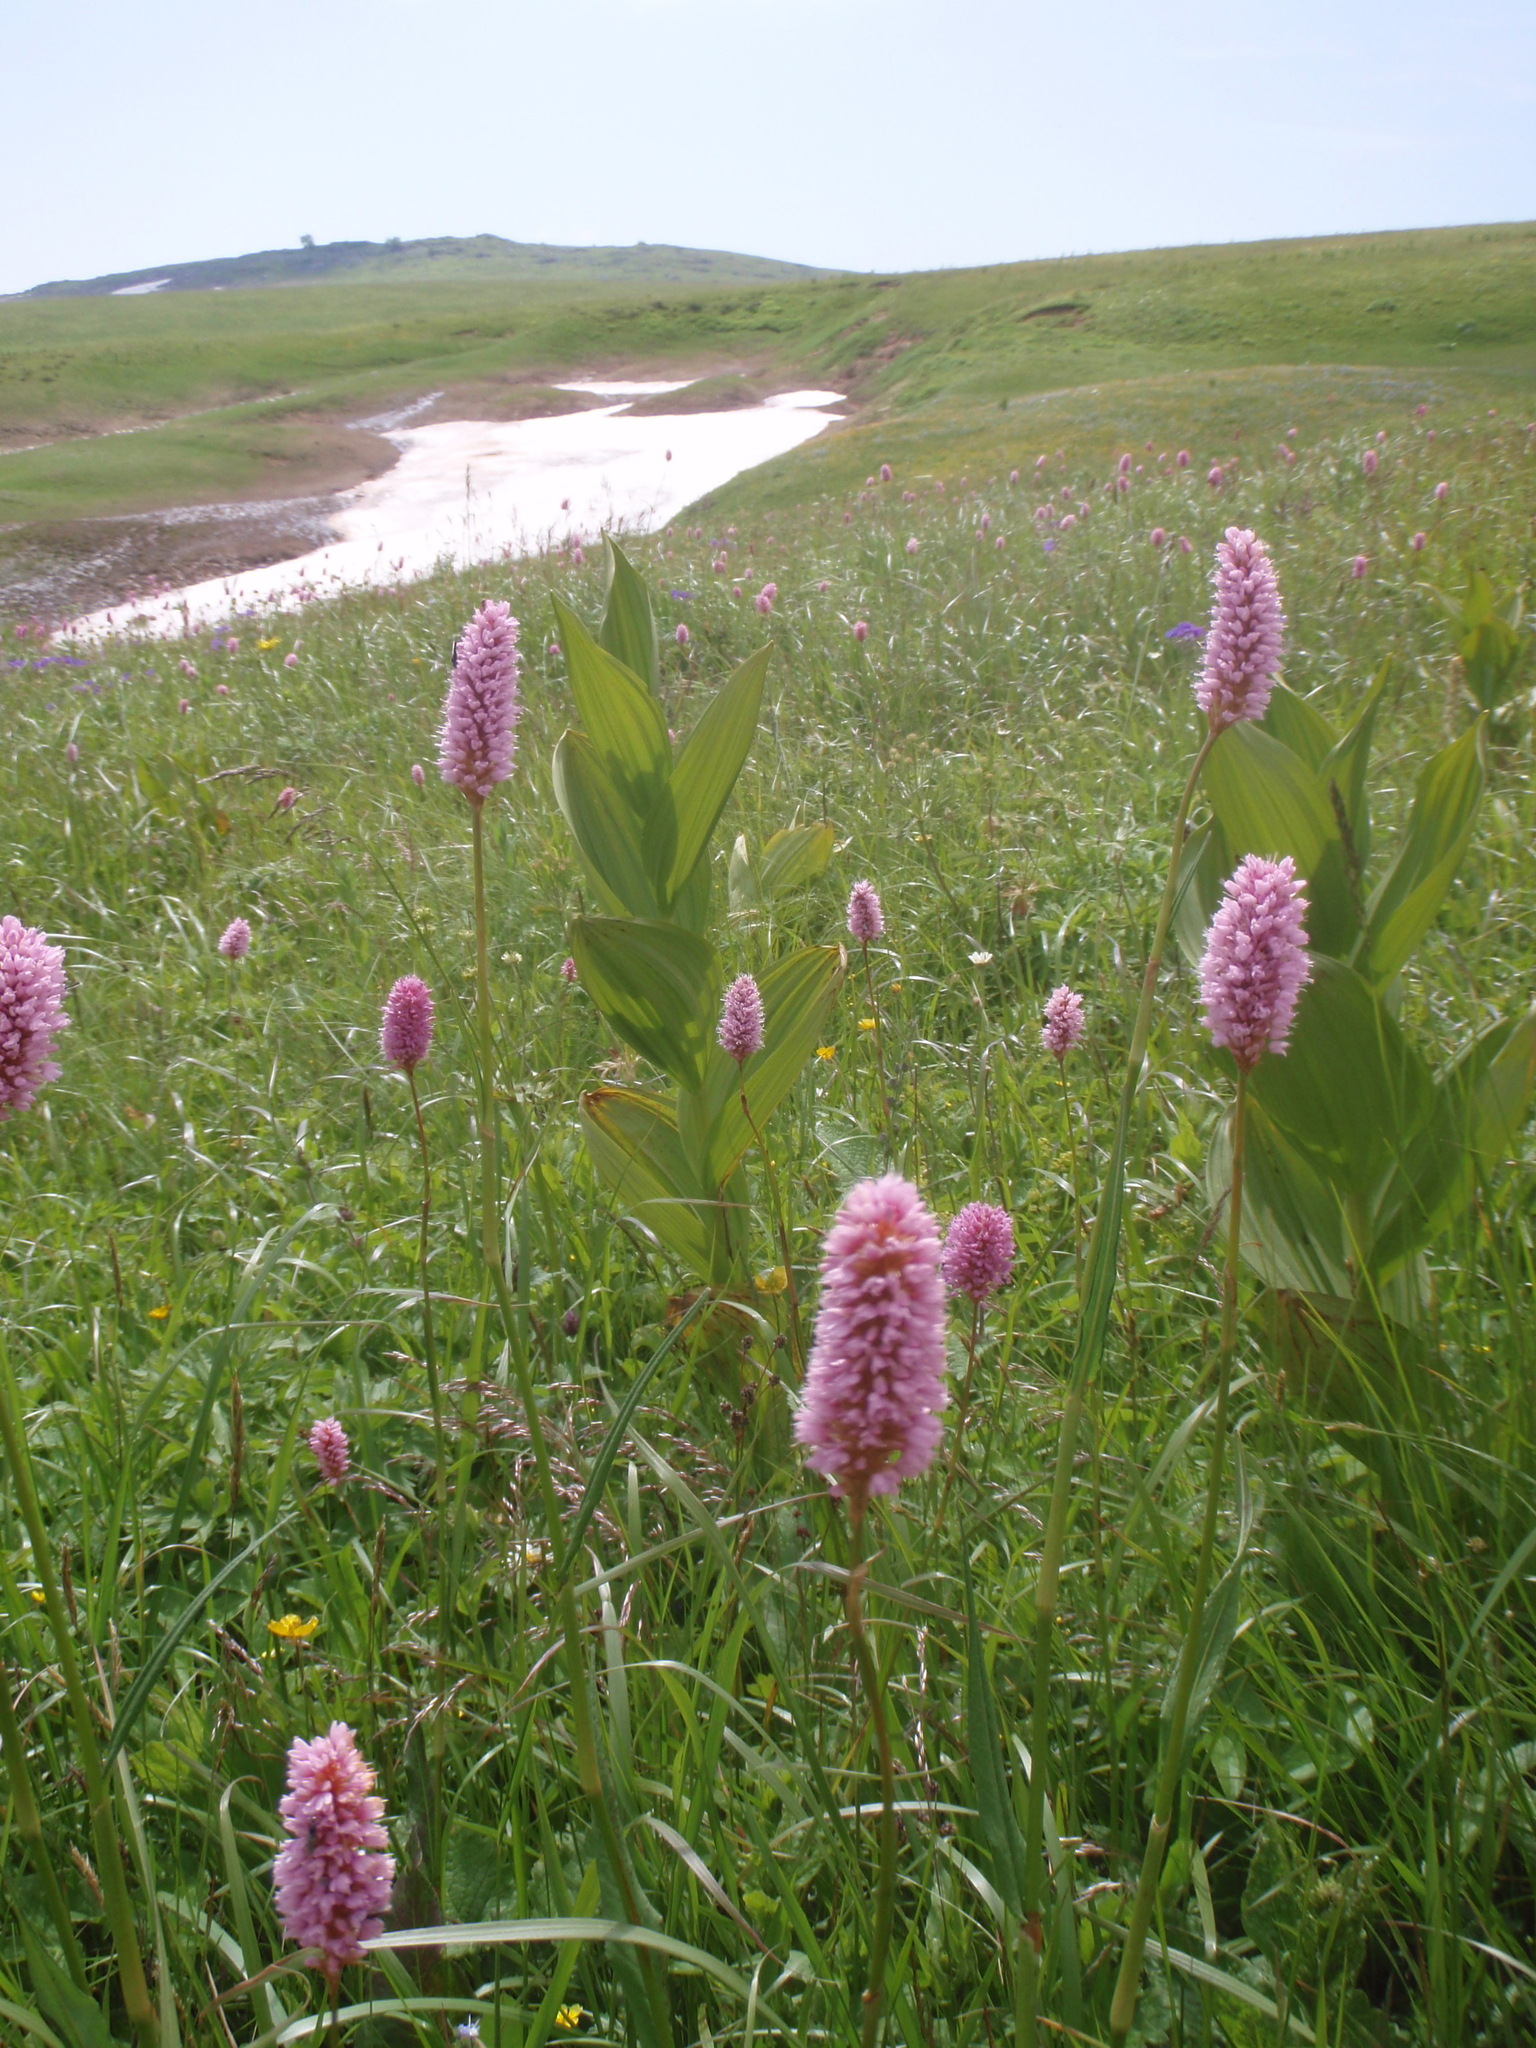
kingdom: Plantae
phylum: Tracheophyta
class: Magnoliopsida
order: Caryophyllales
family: Polygonaceae
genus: Bistorta
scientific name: Bistorta carnea
